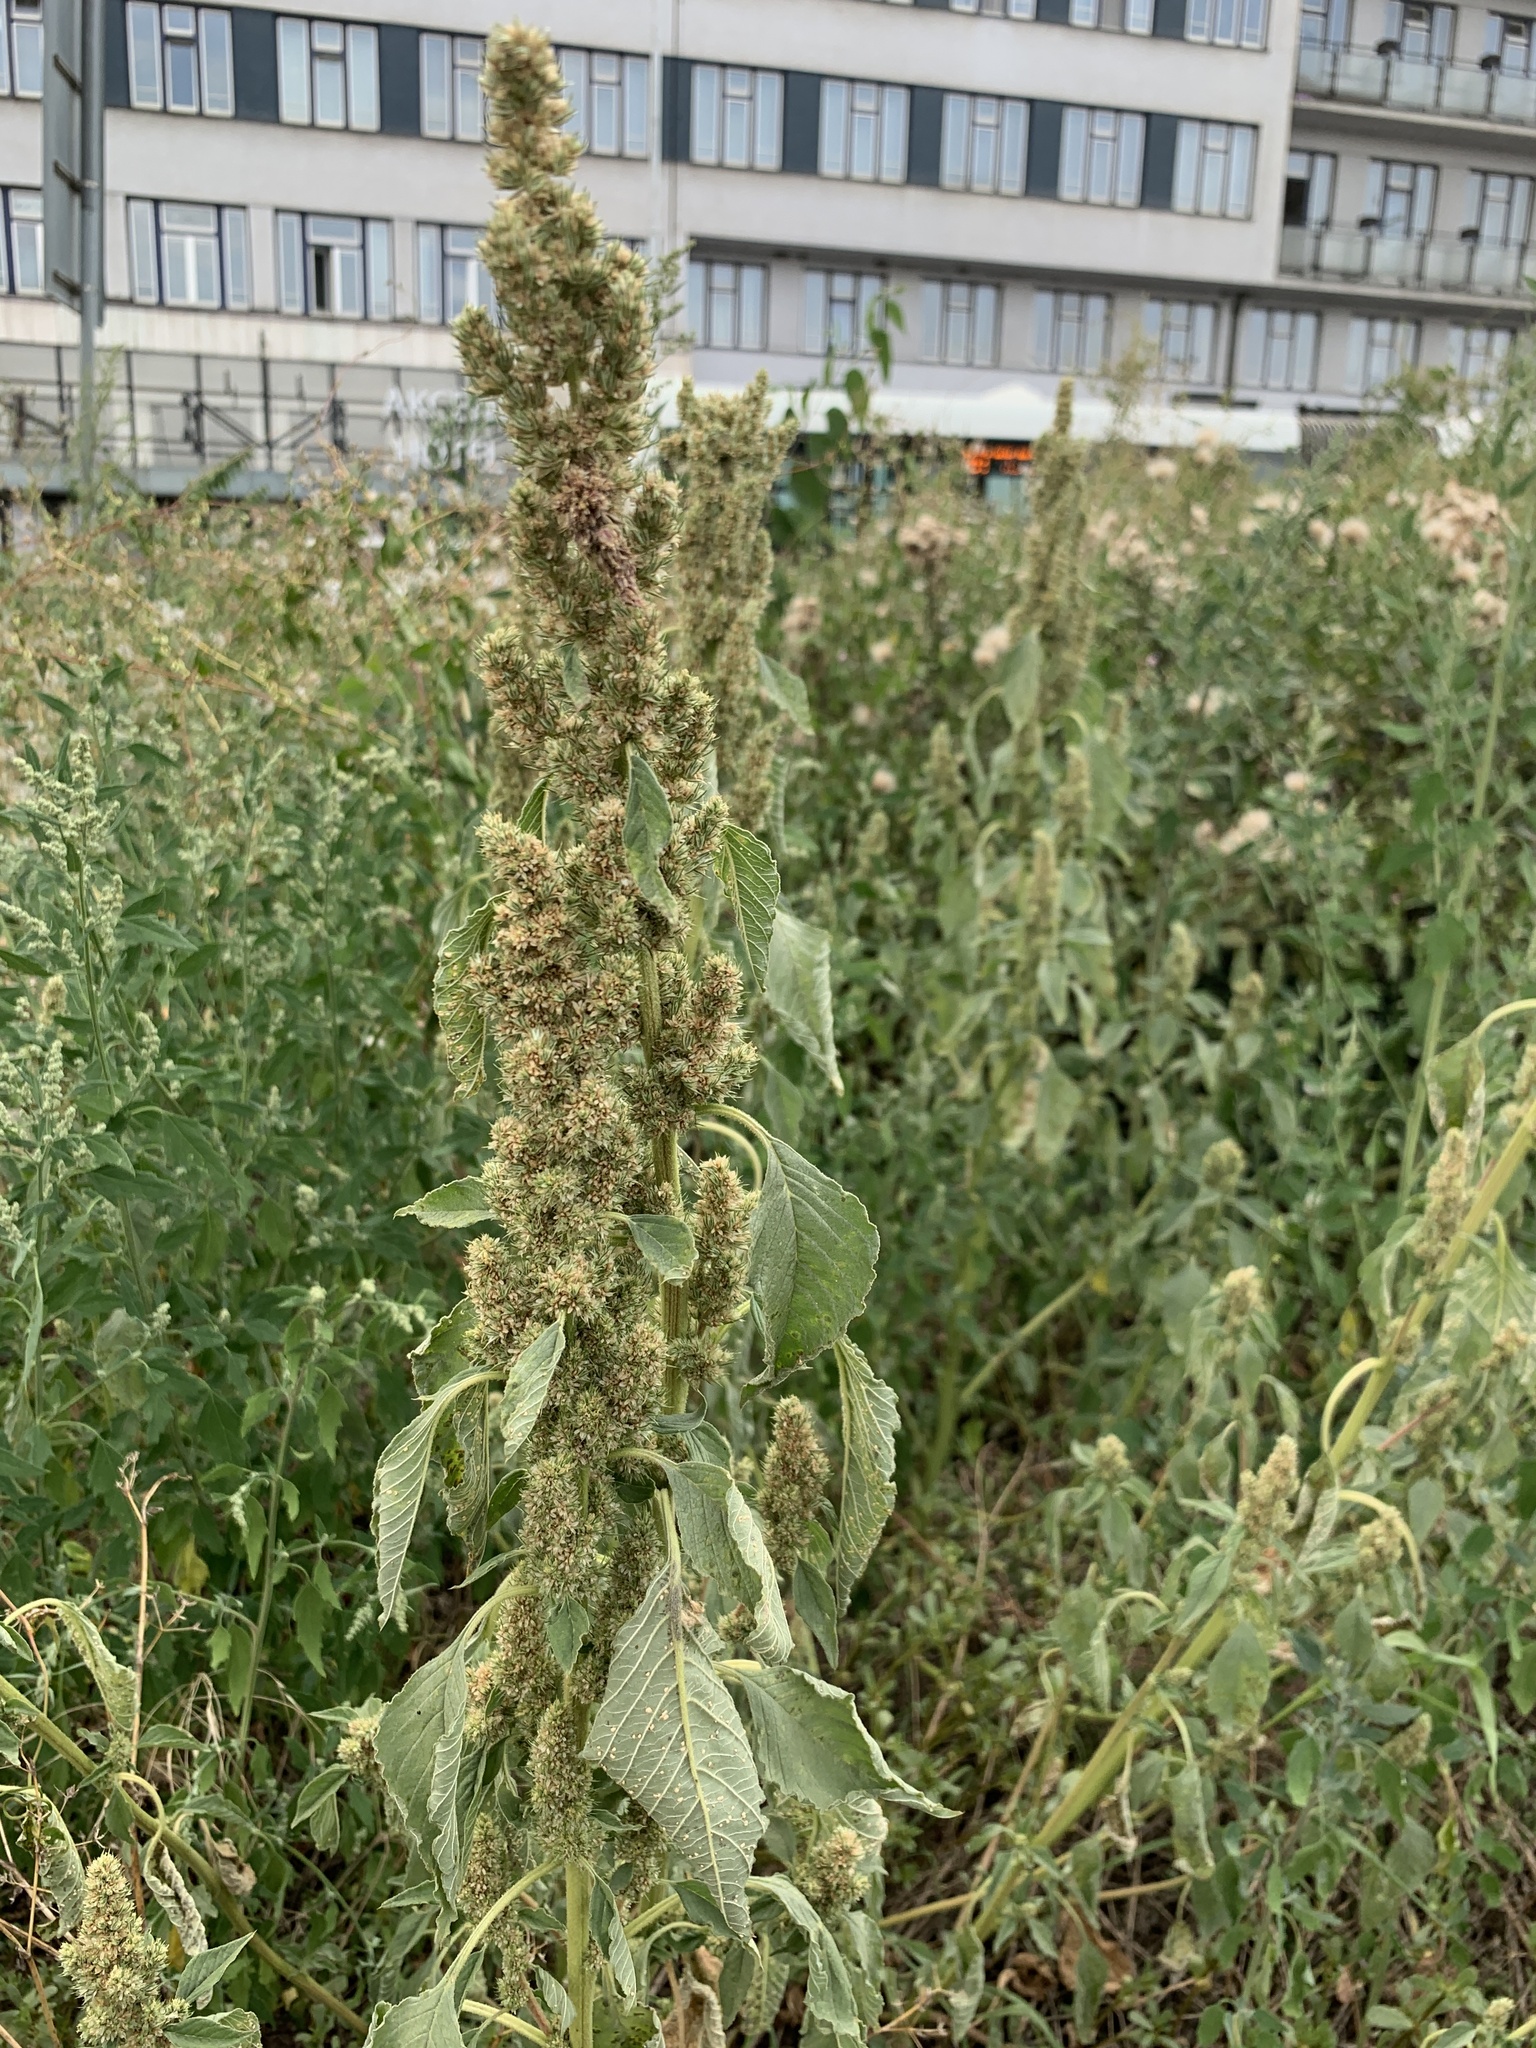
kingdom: Plantae
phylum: Tracheophyta
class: Magnoliopsida
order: Caryophyllales
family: Amaranthaceae
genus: Amaranthus
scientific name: Amaranthus retroflexus
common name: Redroot amaranth
